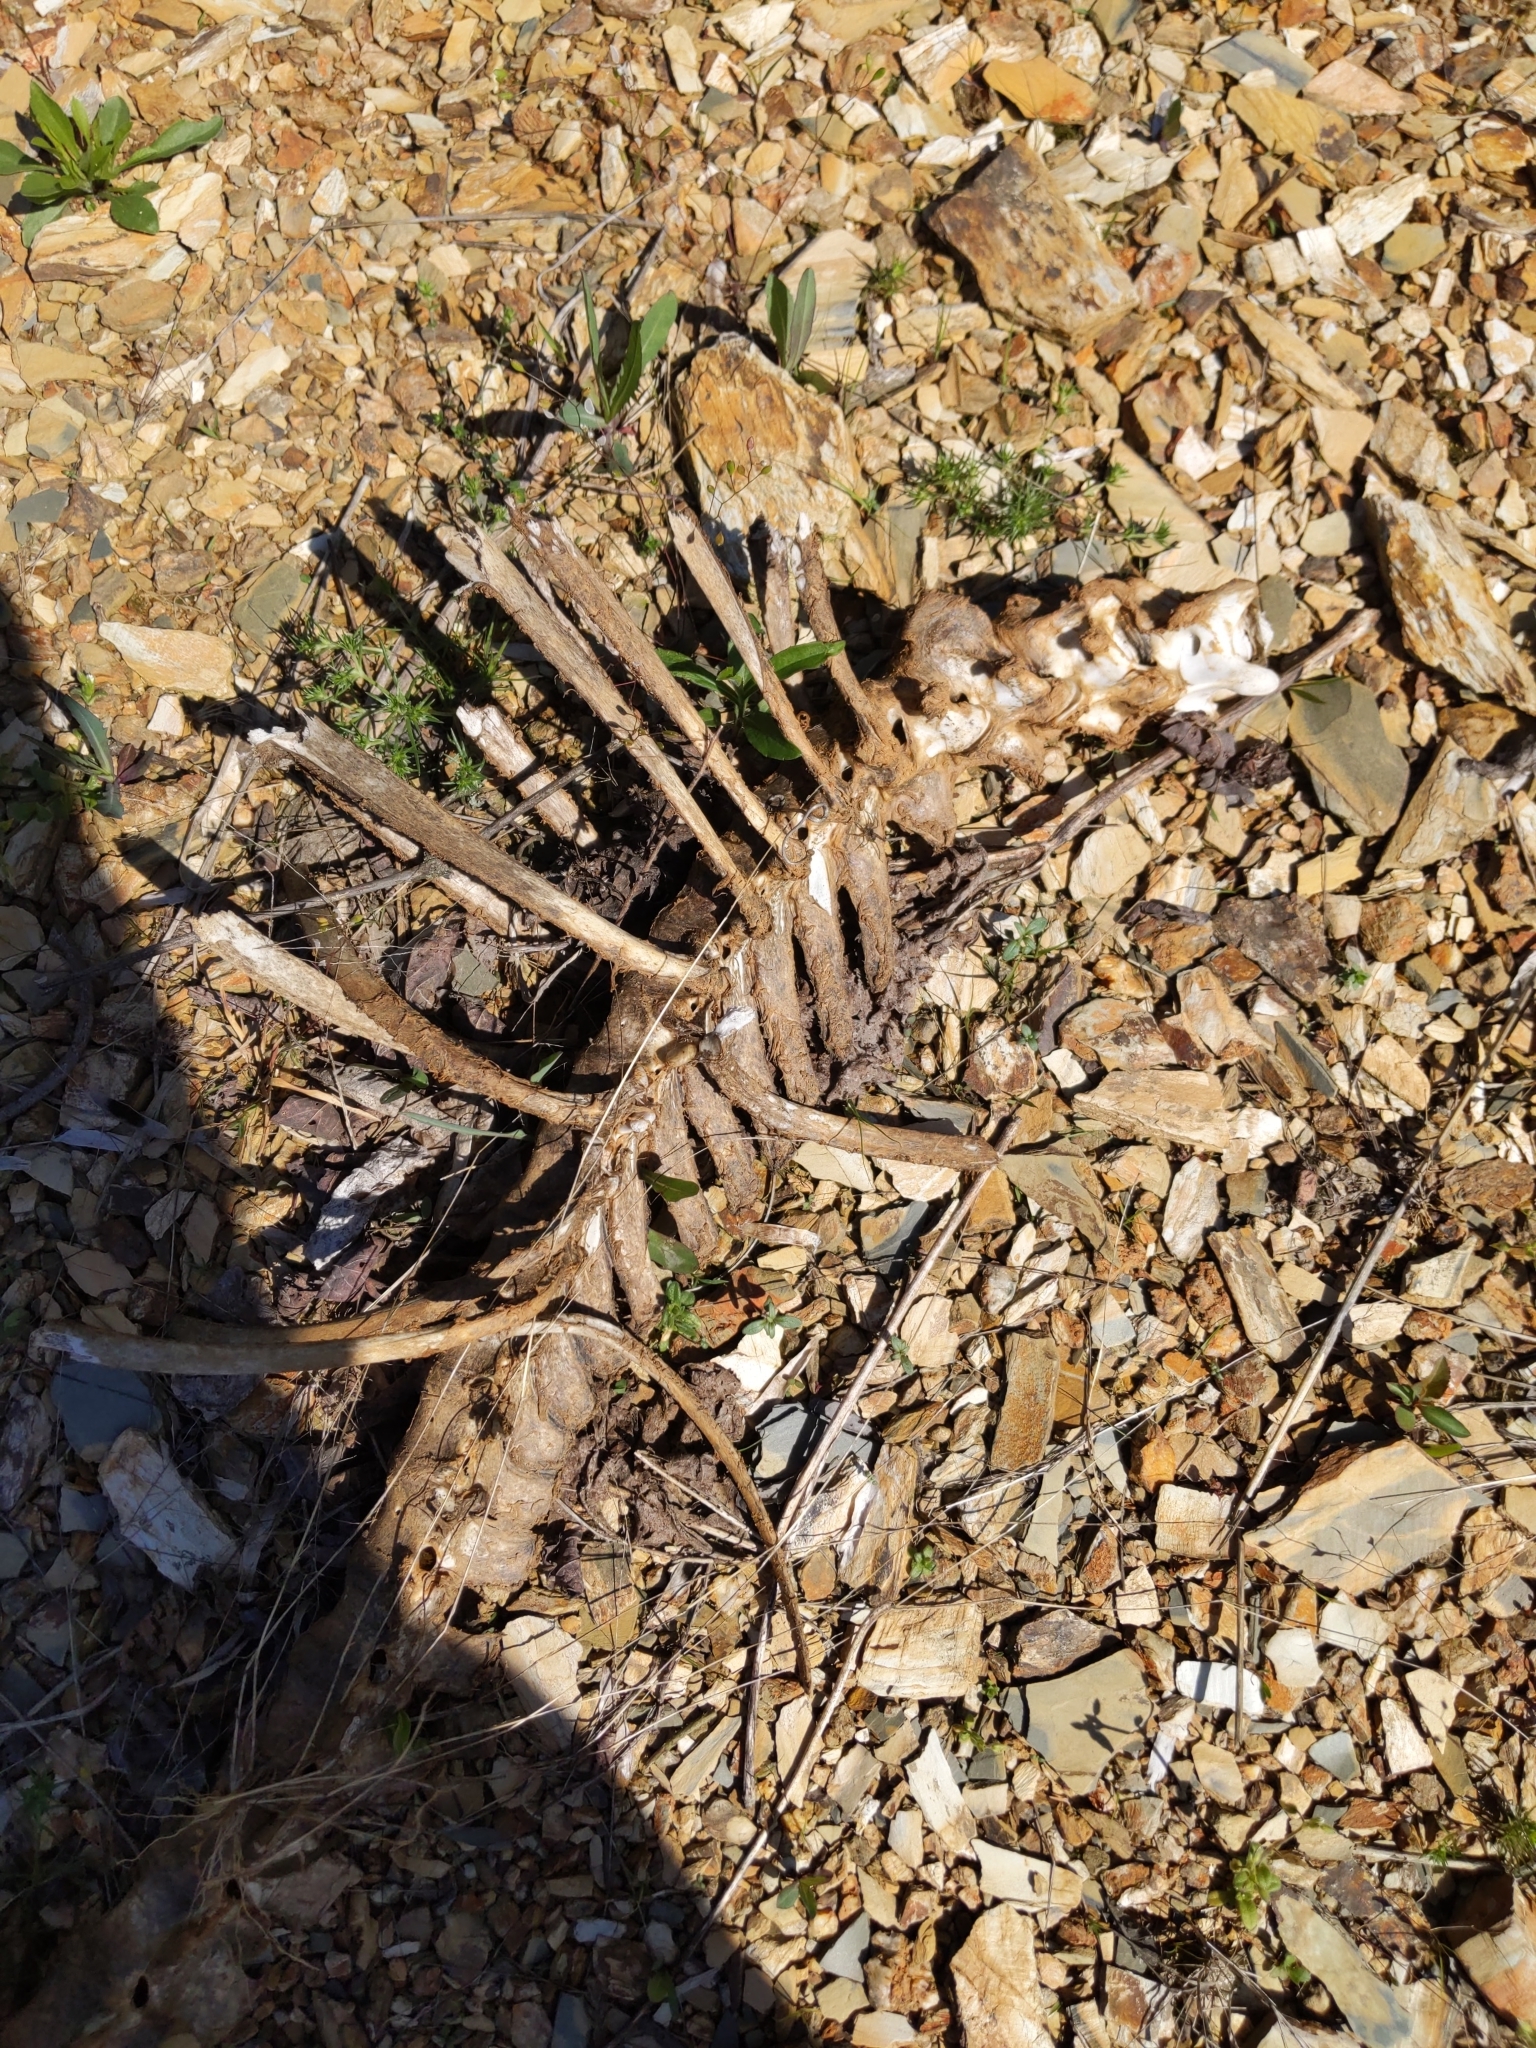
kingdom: Animalia
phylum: Chordata
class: Mammalia
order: Artiodactyla
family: Cervidae
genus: Odocoileus
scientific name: Odocoileus virginianus
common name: White-tailed deer
